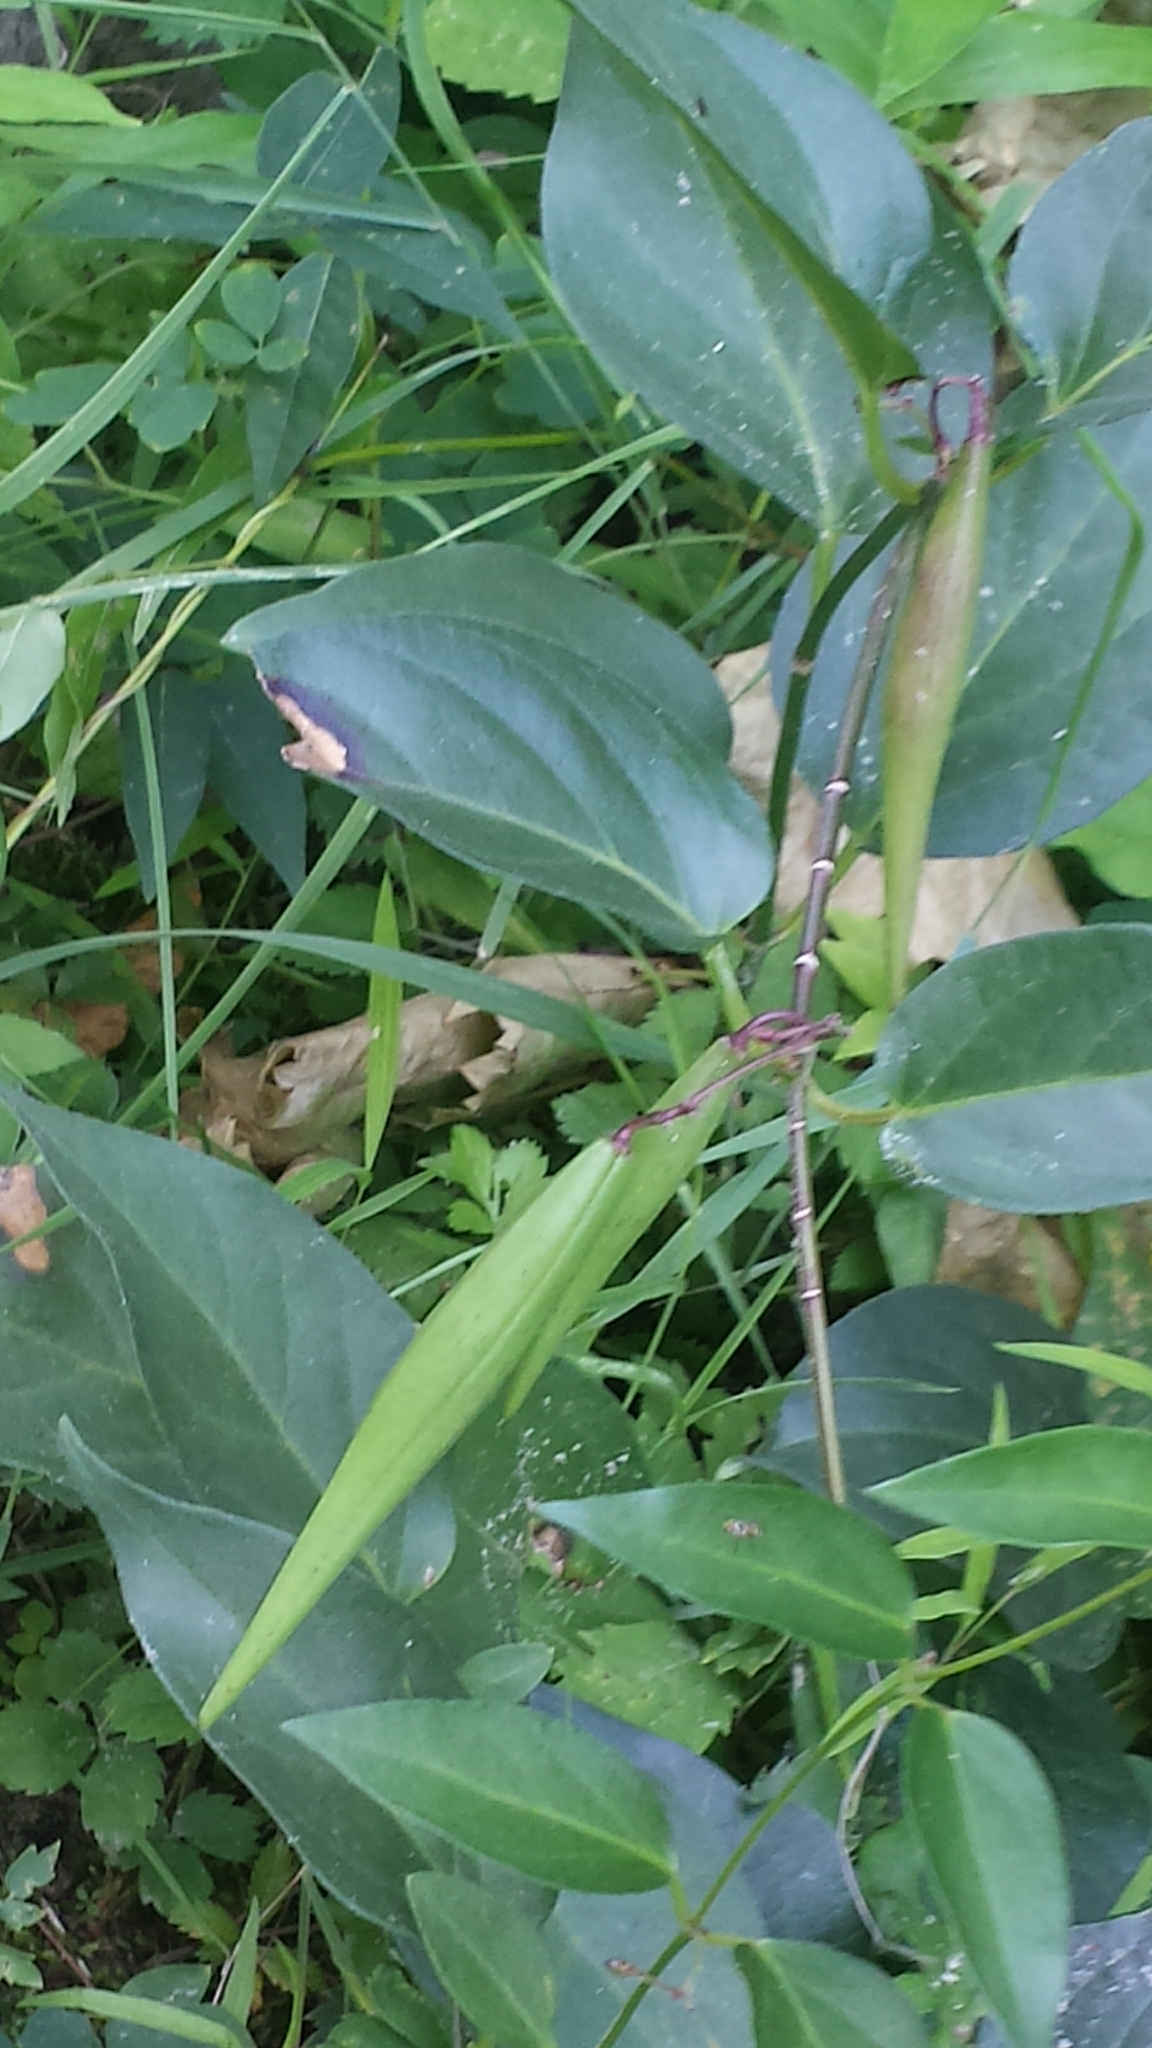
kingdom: Plantae
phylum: Tracheophyta
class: Magnoliopsida
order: Gentianales
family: Apocynaceae
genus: Vincetoxicum
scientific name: Vincetoxicum nigrum
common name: Black swallow-wort
